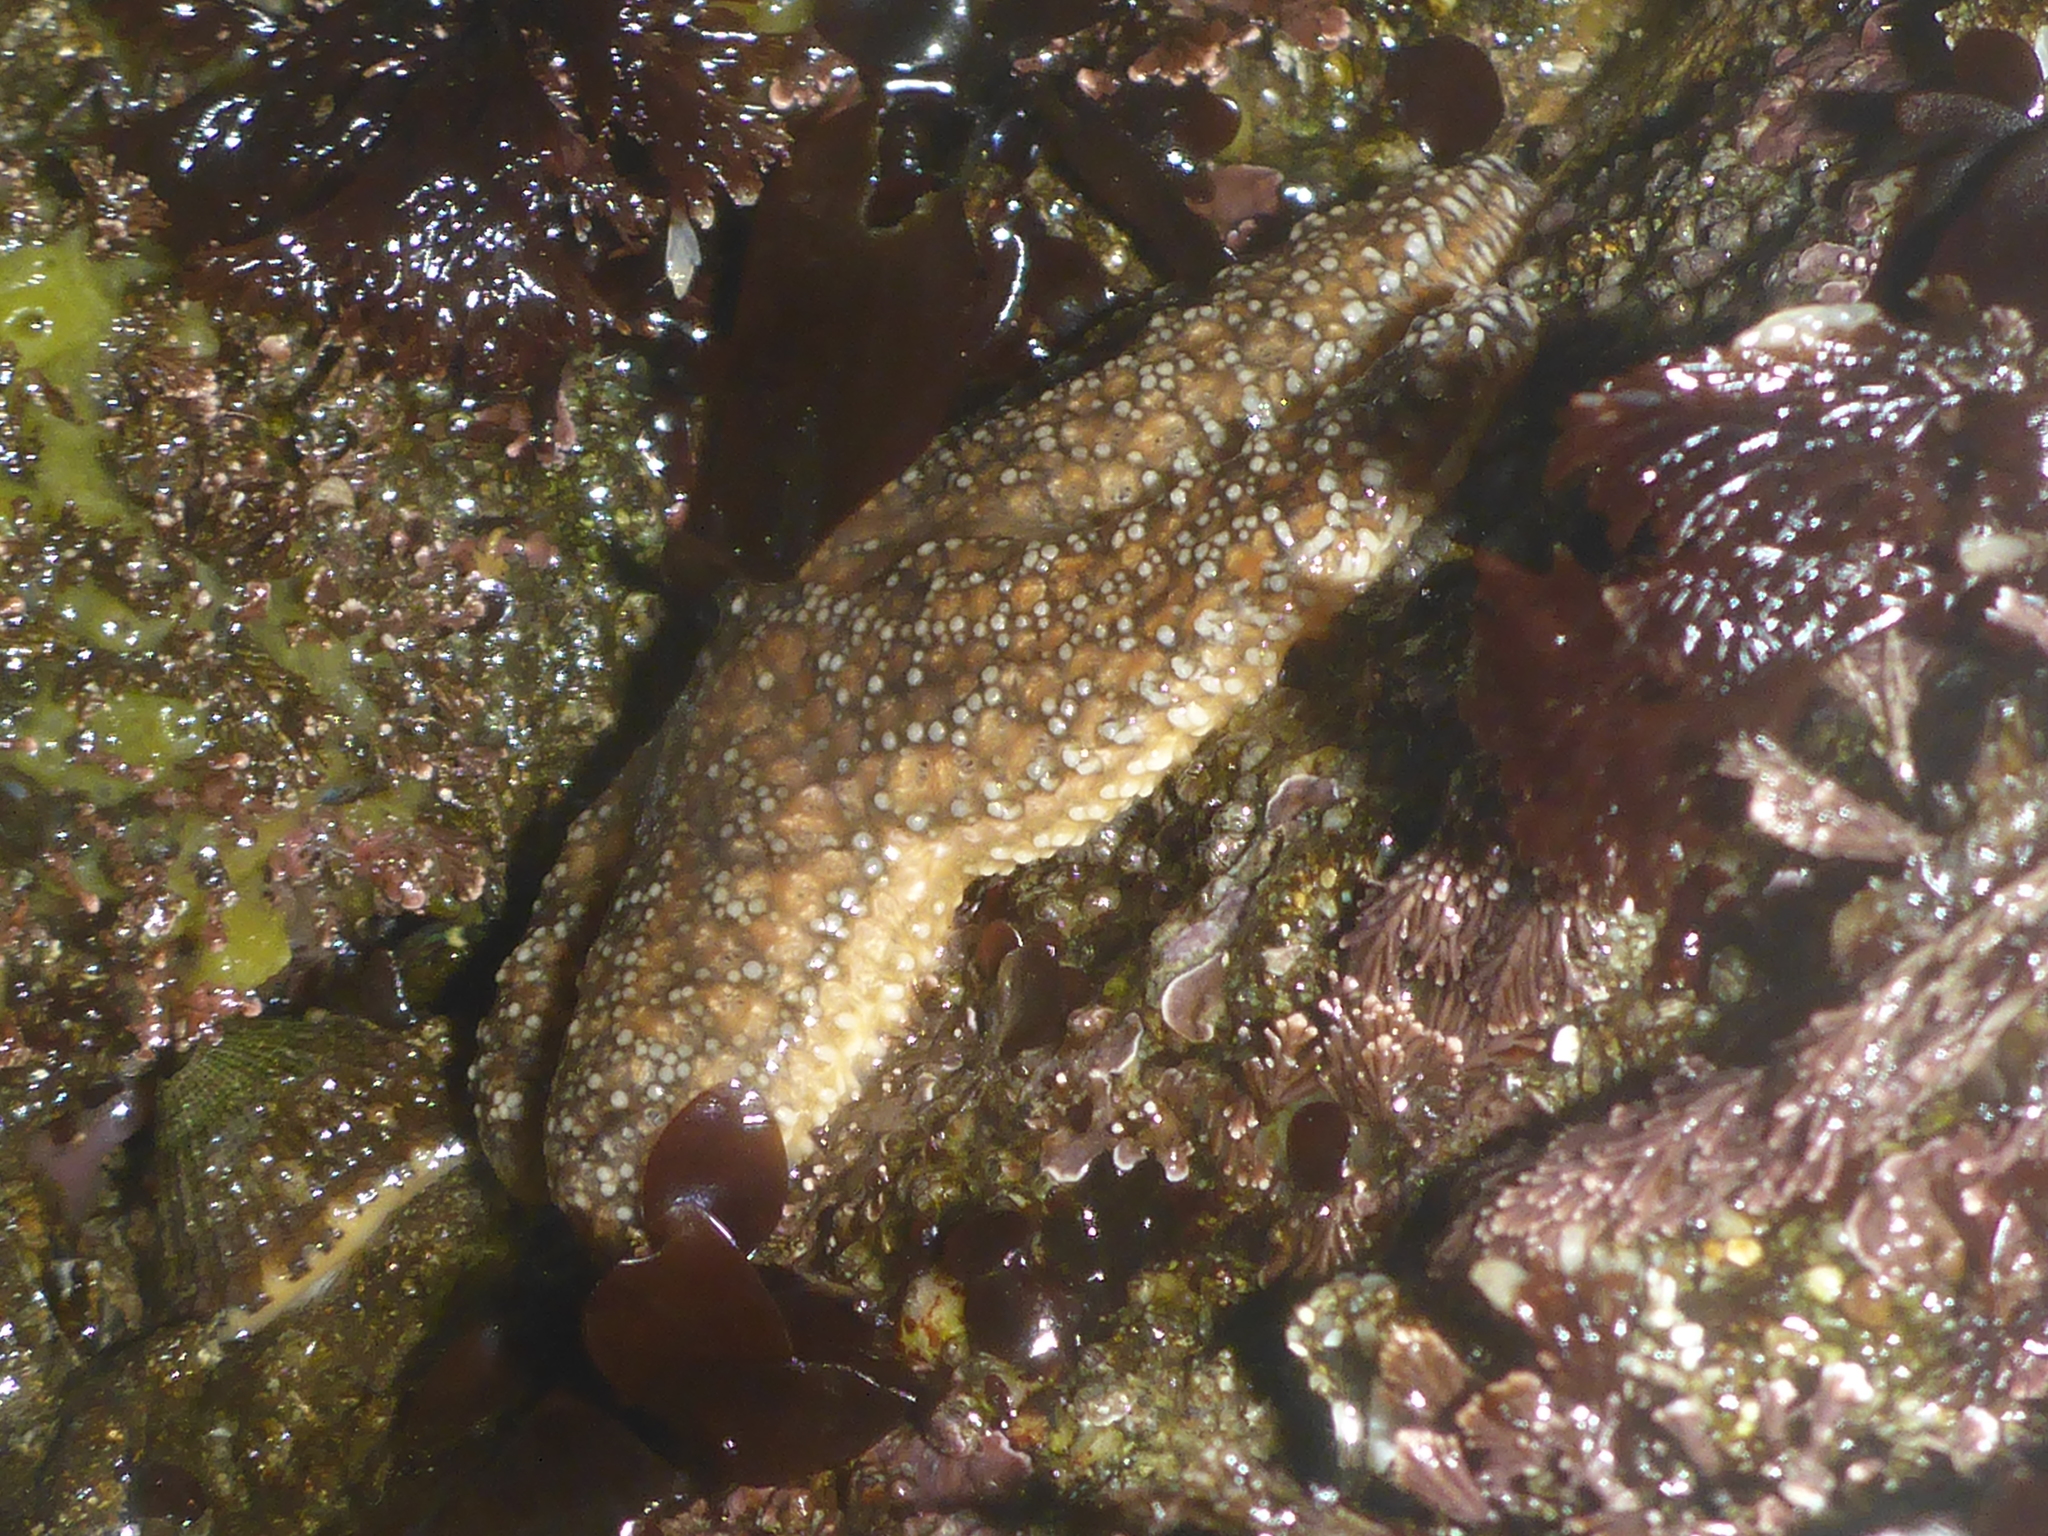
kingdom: Animalia
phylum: Echinodermata
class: Asteroidea
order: Forcipulatida
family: Asteriidae
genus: Pisaster
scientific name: Pisaster ochraceus
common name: Ochre stars
